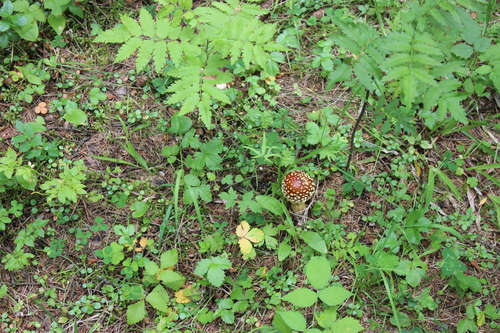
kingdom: Fungi
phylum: Basidiomycota
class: Agaricomycetes
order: Agaricales
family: Amanitaceae
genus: Amanita
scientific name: Amanita regalis
